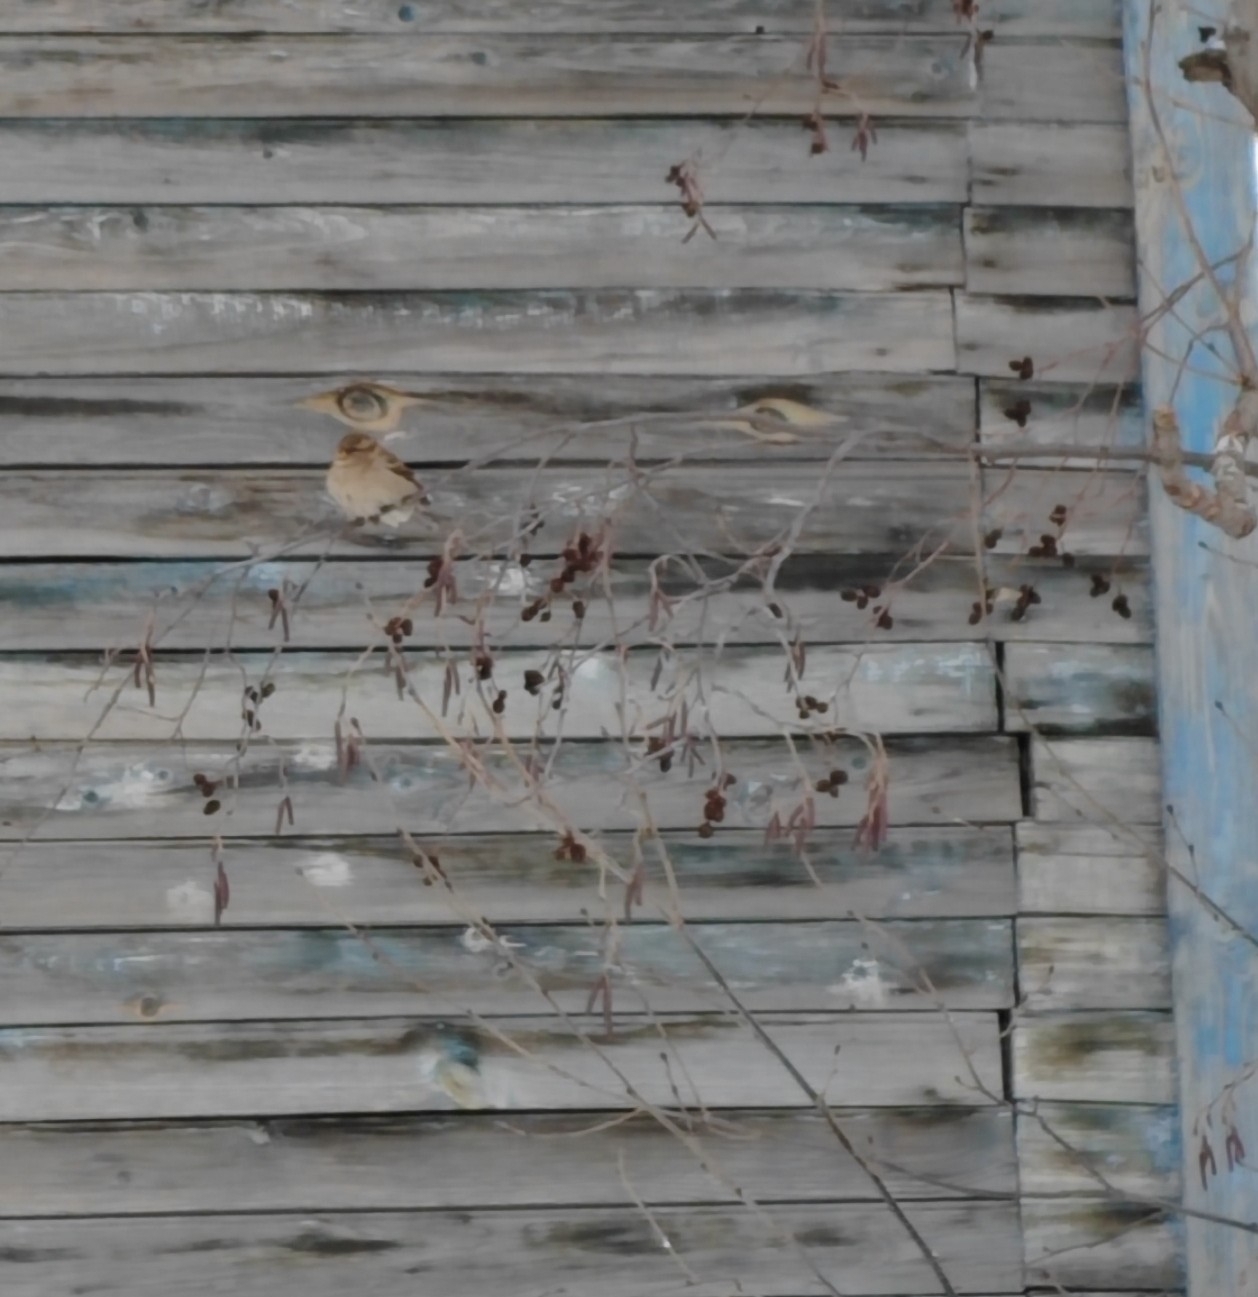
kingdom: Animalia
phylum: Chordata
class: Aves
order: Passeriformes
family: Passeridae
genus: Passer
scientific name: Passer domesticus
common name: House sparrow
